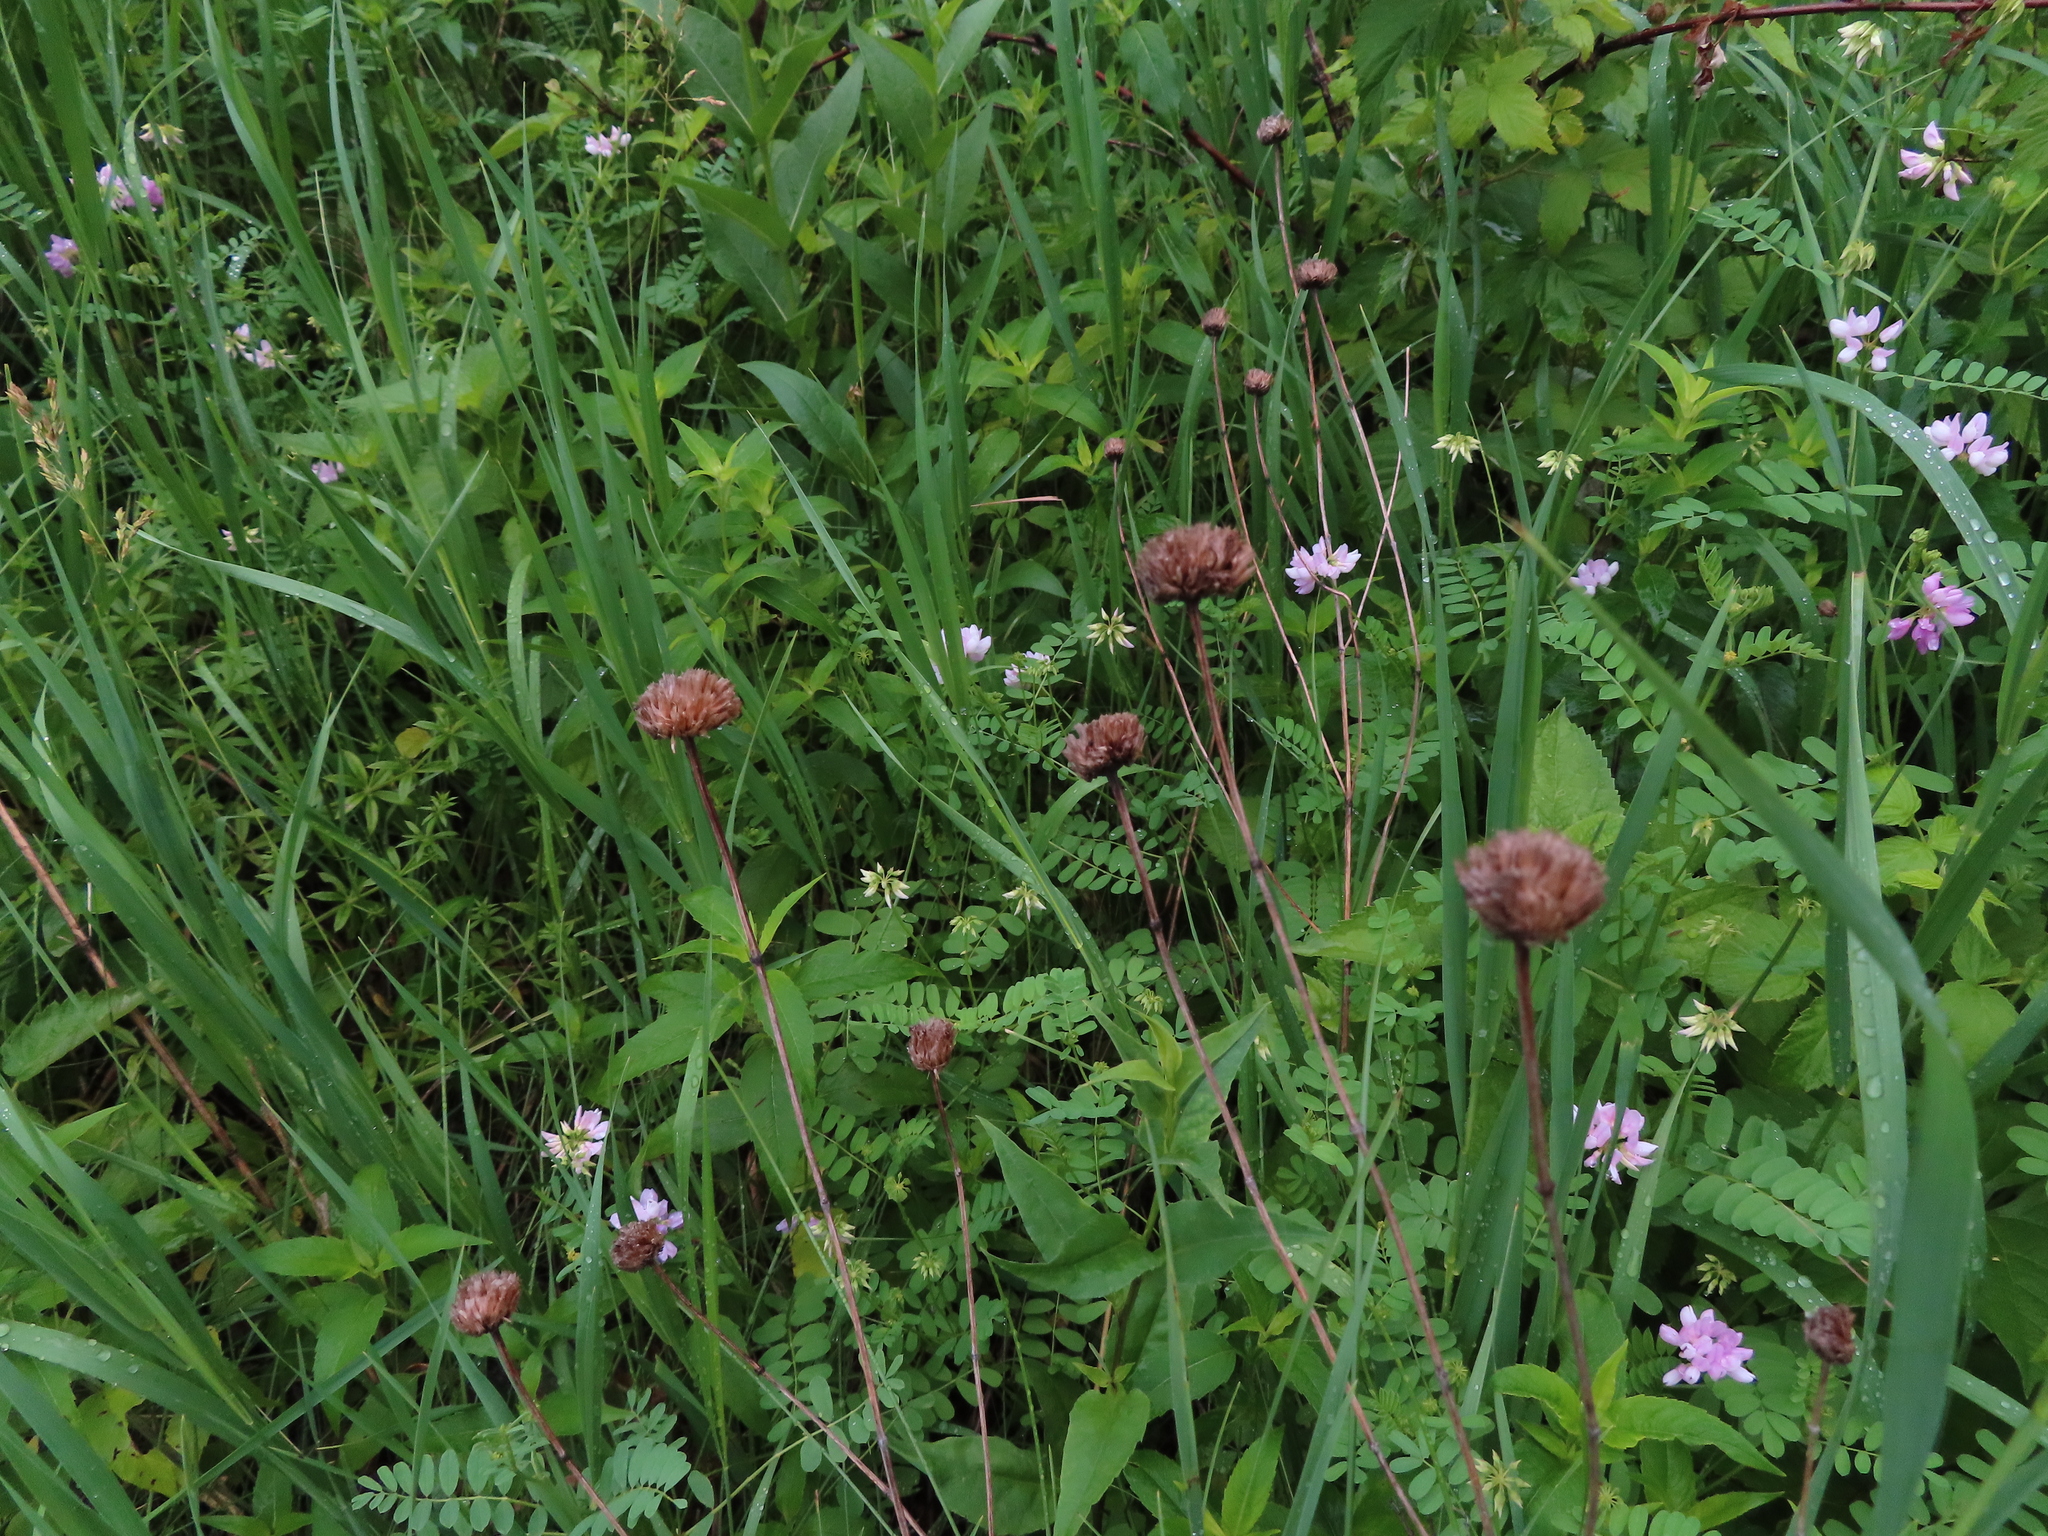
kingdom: Plantae
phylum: Tracheophyta
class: Magnoliopsida
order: Lamiales
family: Lamiaceae
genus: Monarda
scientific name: Monarda fistulosa
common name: Purple beebalm
